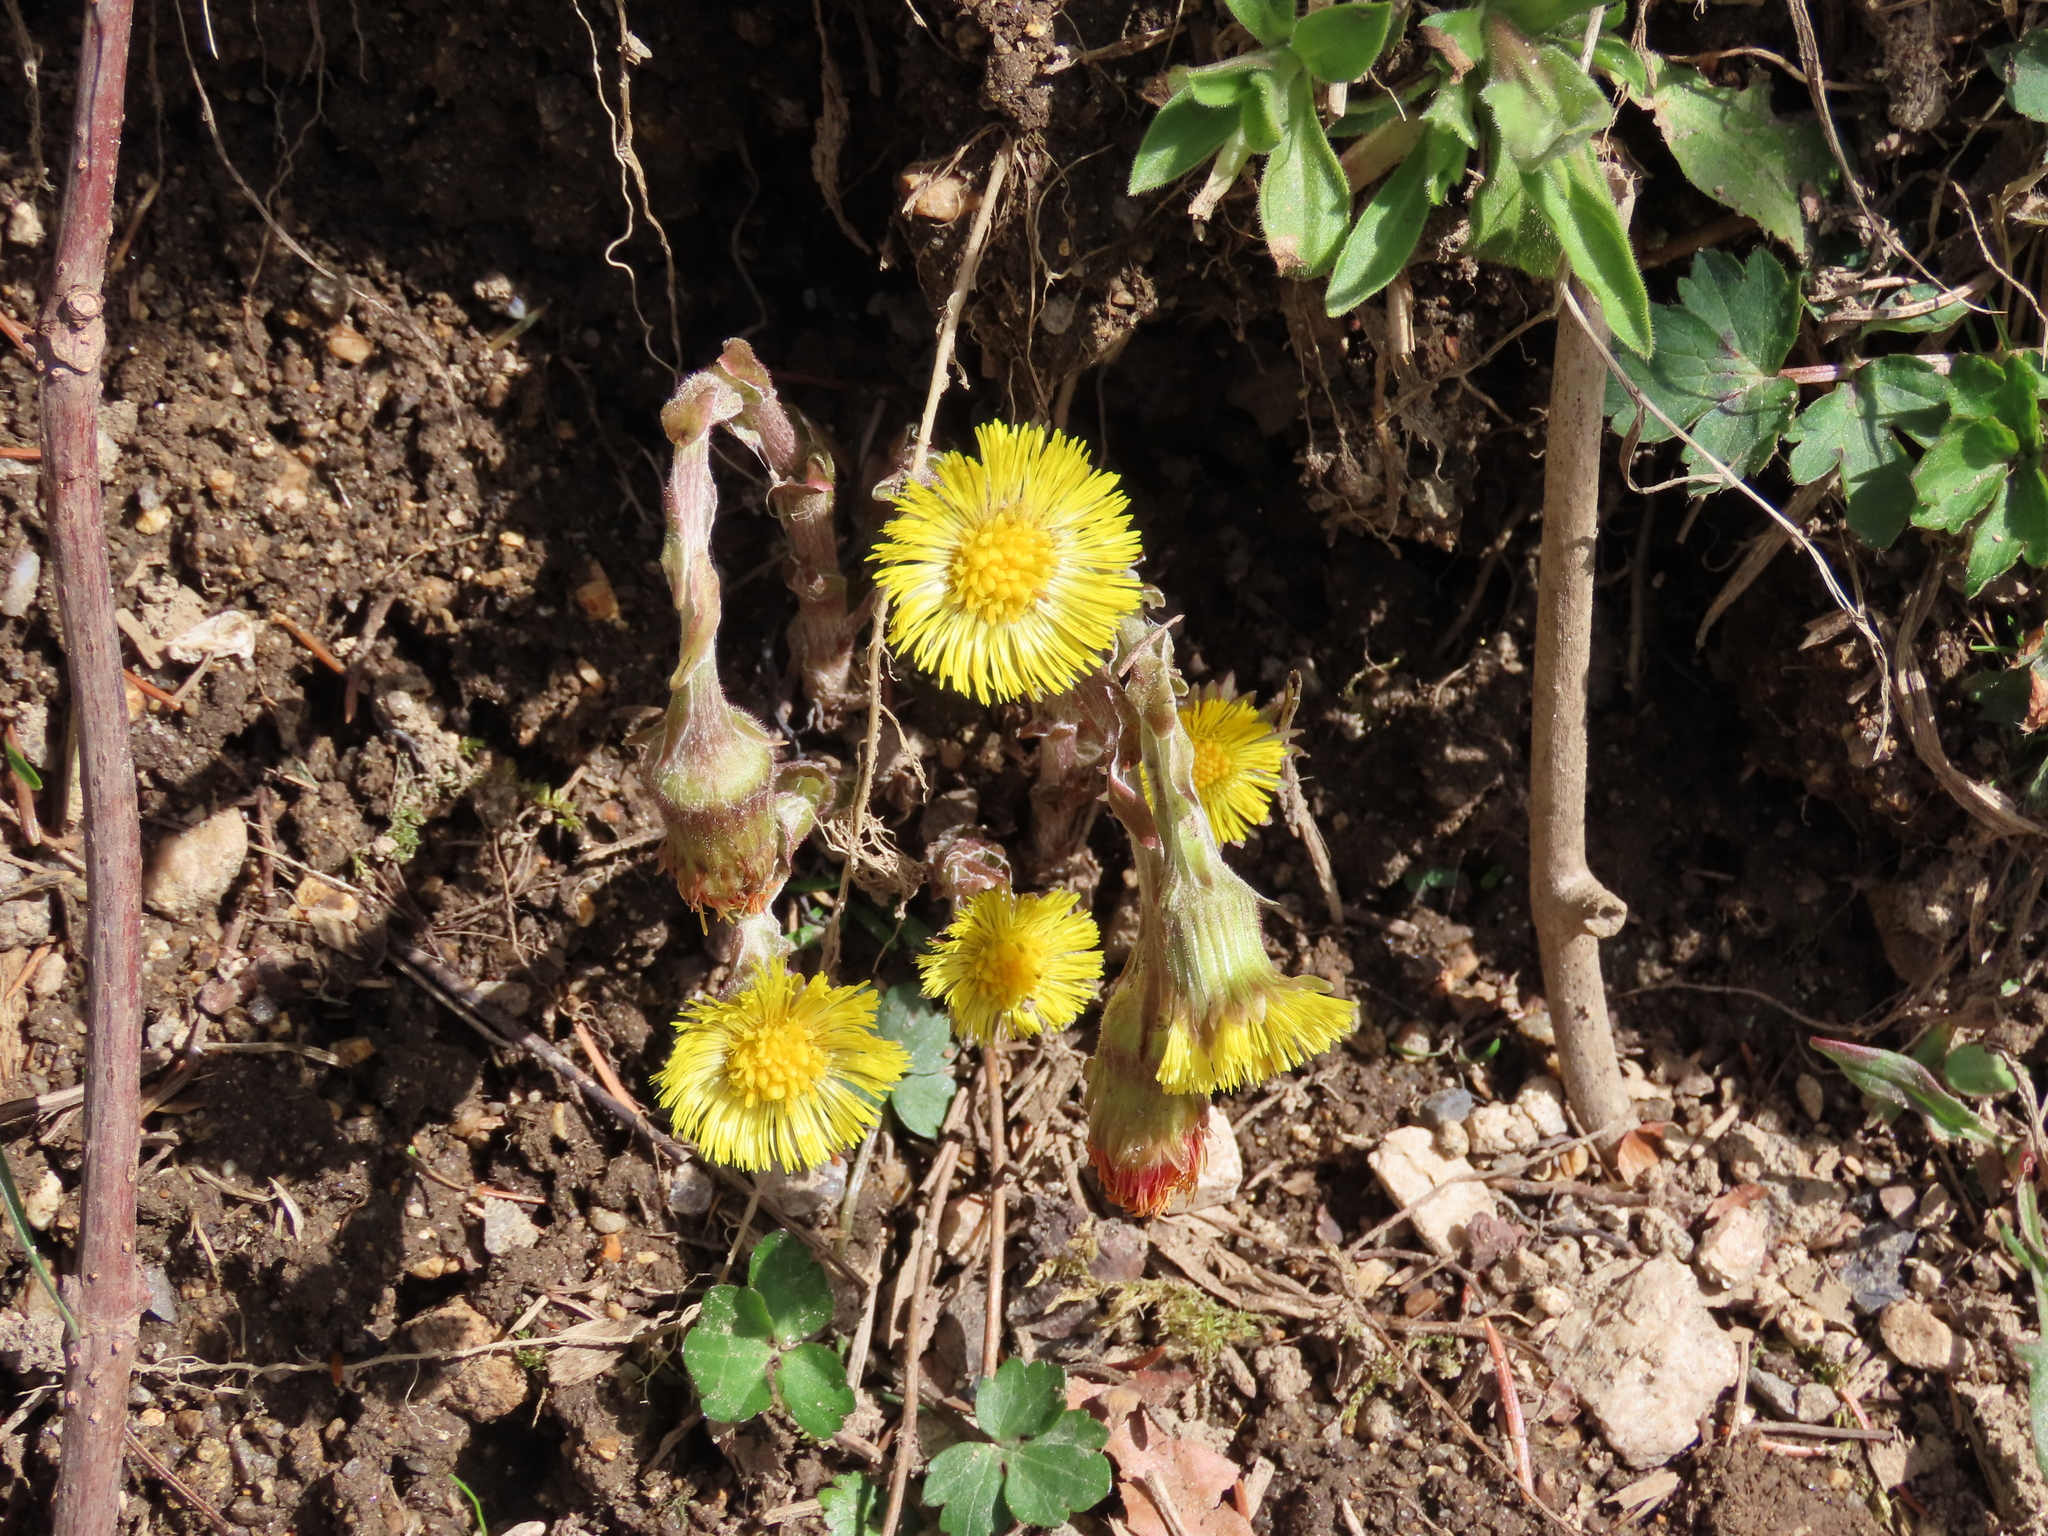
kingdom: Plantae
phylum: Tracheophyta
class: Magnoliopsida
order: Asterales
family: Asteraceae
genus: Tussilago
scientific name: Tussilago farfara
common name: Coltsfoot
